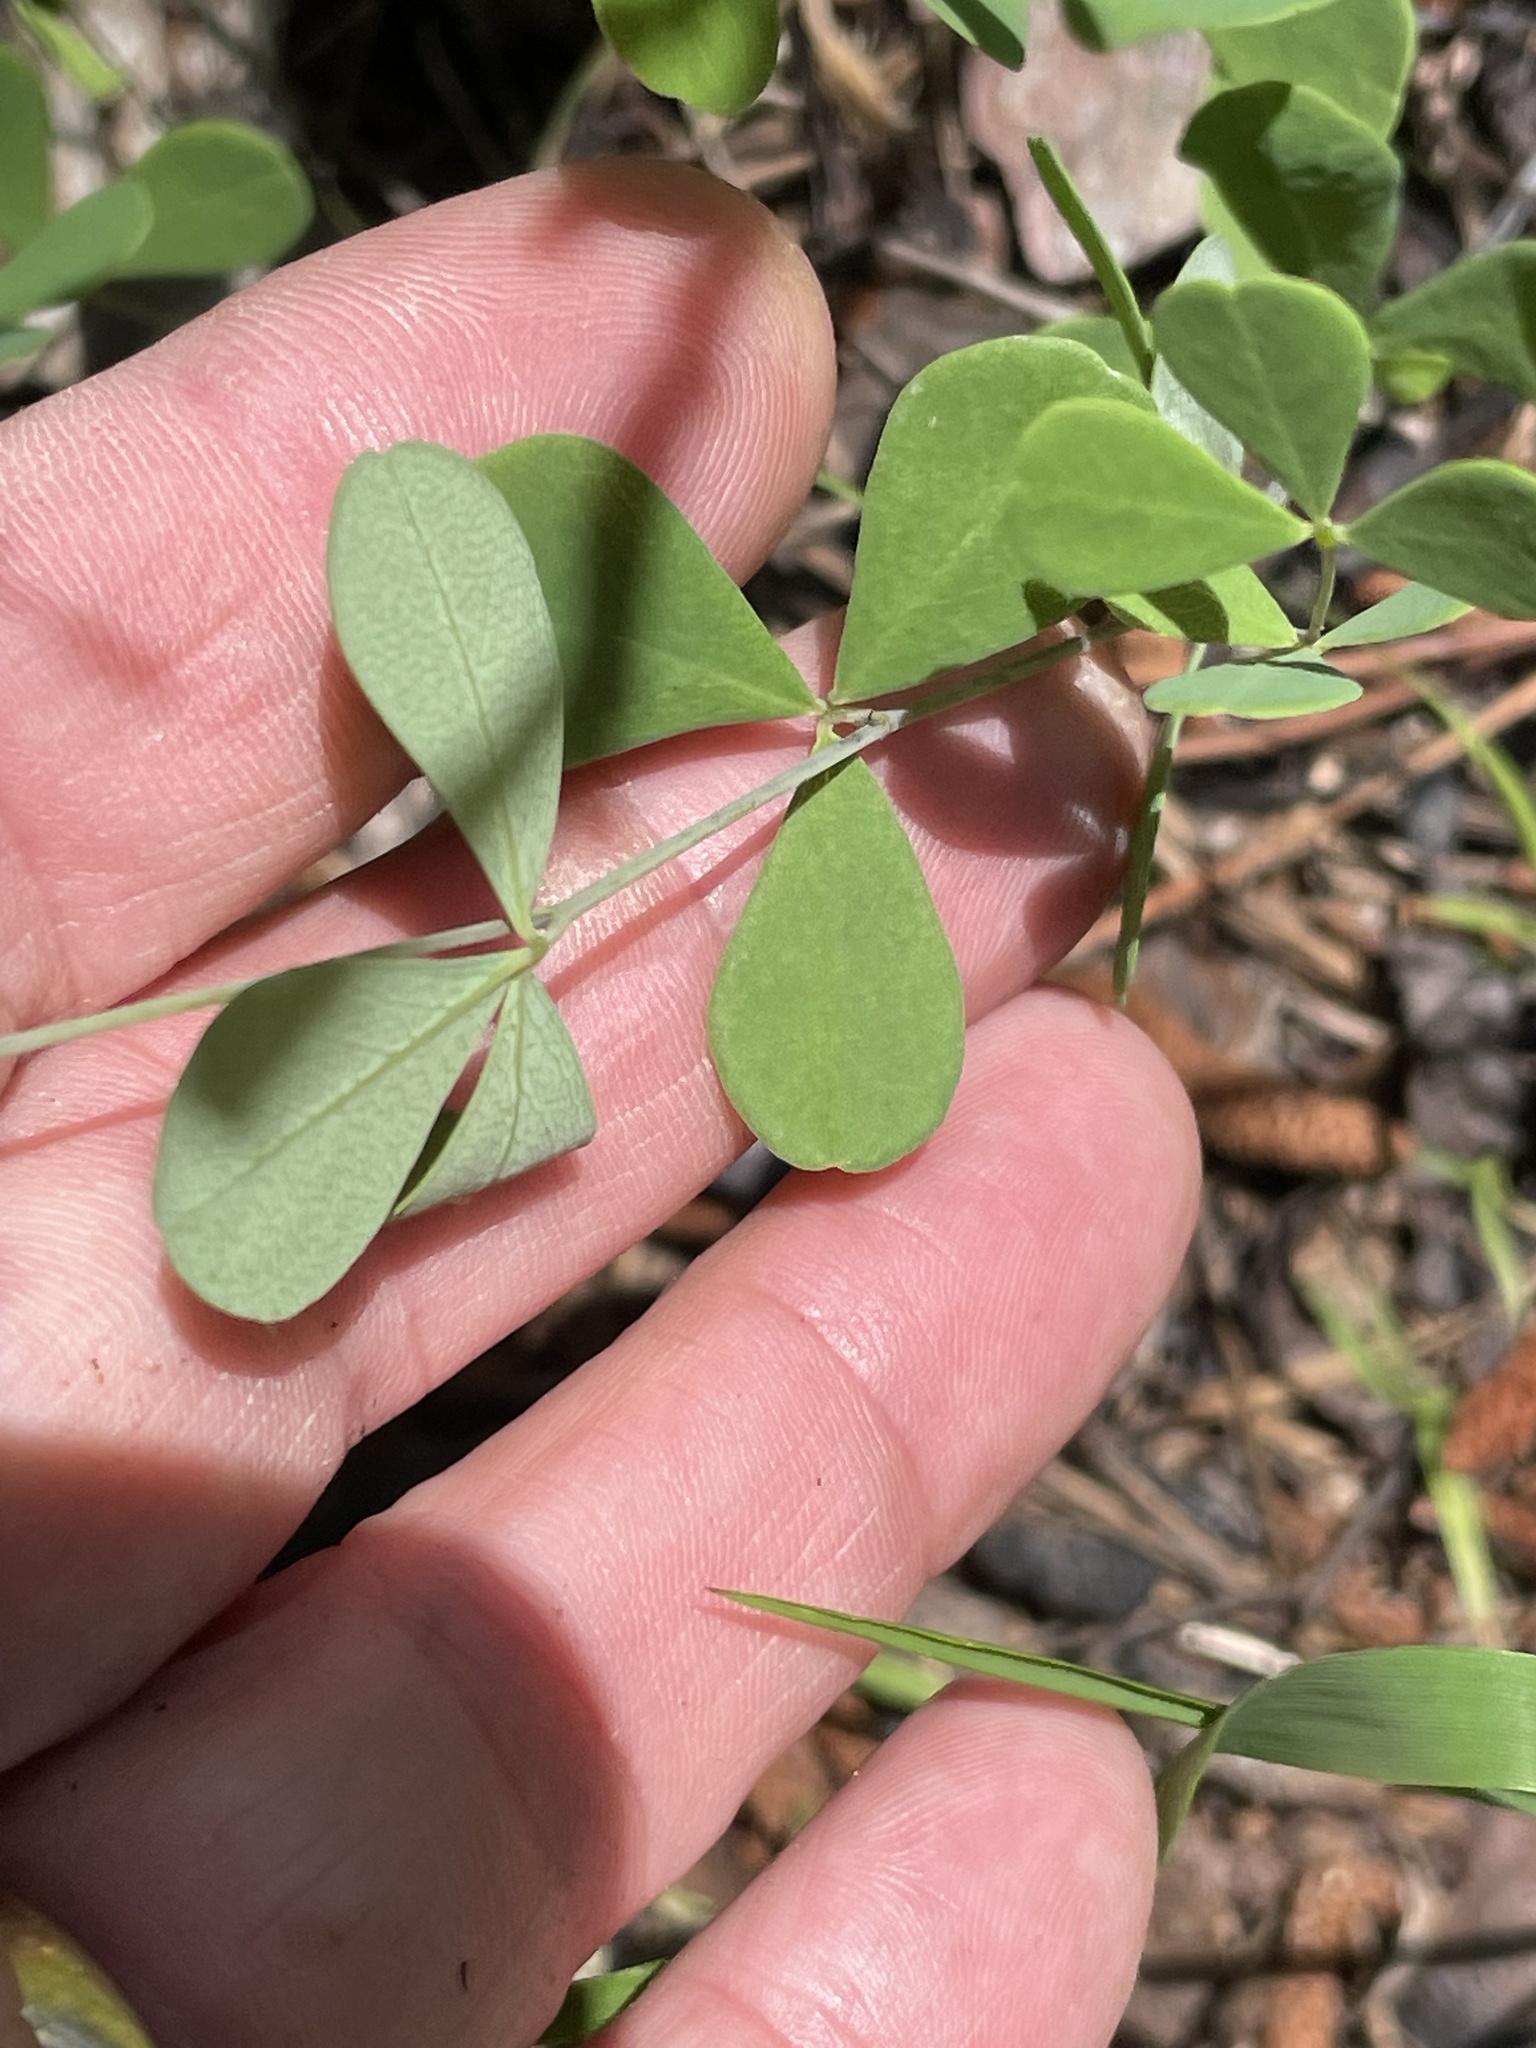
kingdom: Plantae
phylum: Tracheophyta
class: Magnoliopsida
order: Fabales
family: Fabaceae
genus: Baptisia
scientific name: Baptisia tinctoria
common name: Wild indigo
